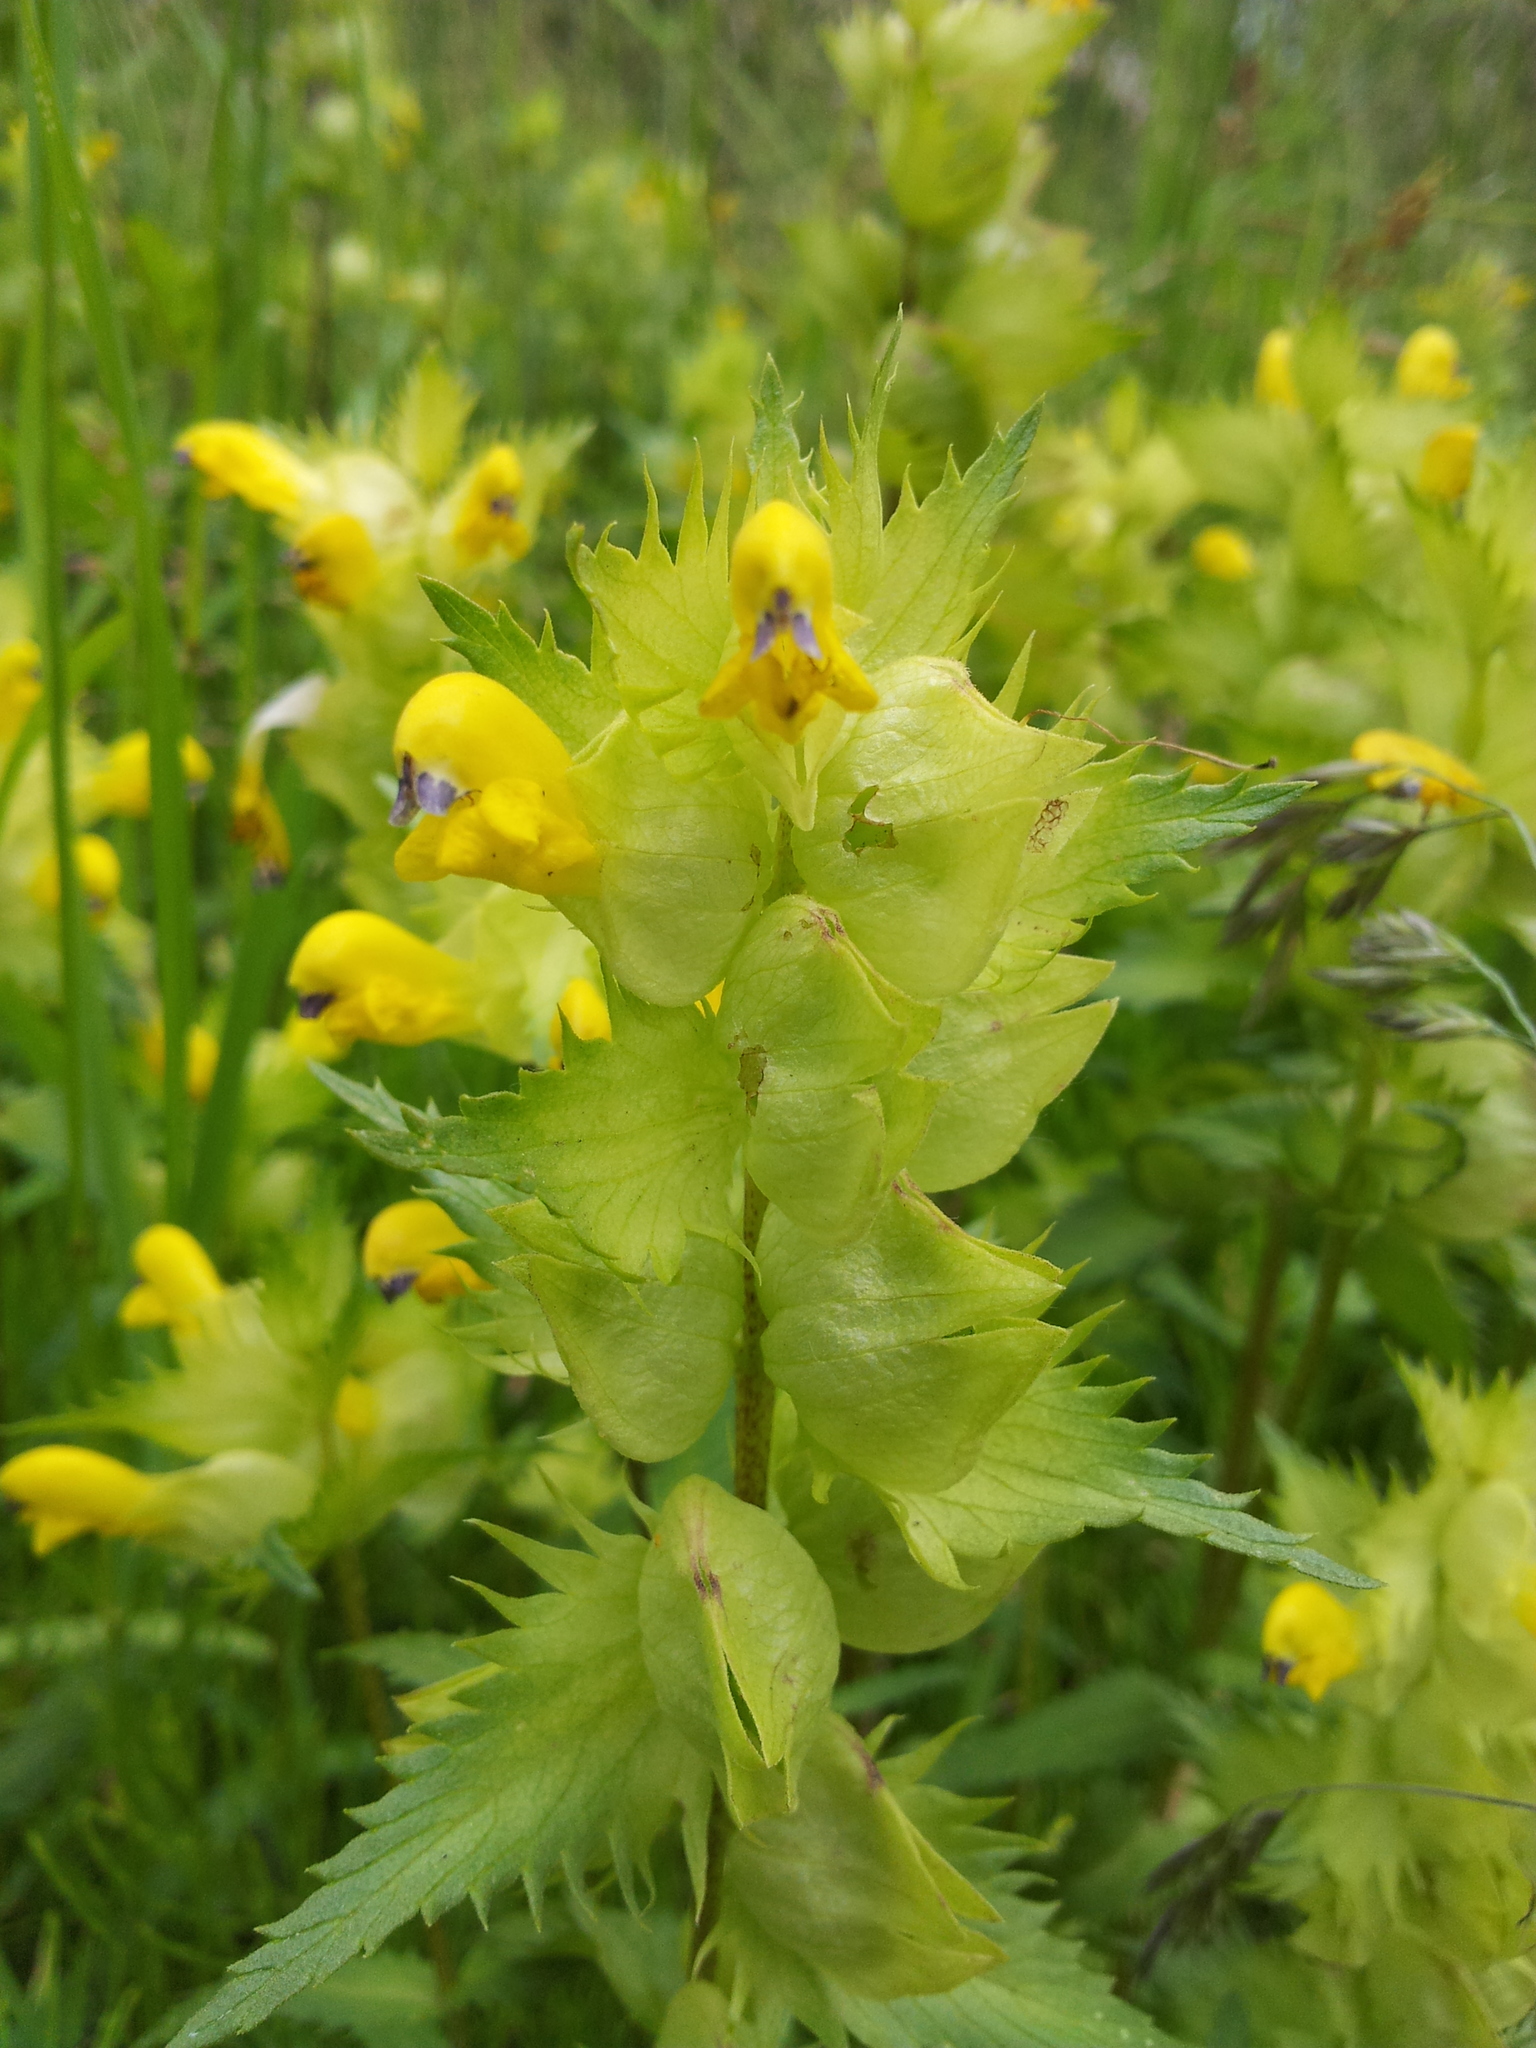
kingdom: Plantae
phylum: Tracheophyta
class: Magnoliopsida
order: Lamiales
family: Orobanchaceae
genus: Rhinanthus
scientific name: Rhinanthus serotinus
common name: Late-flowering yellow rattle
